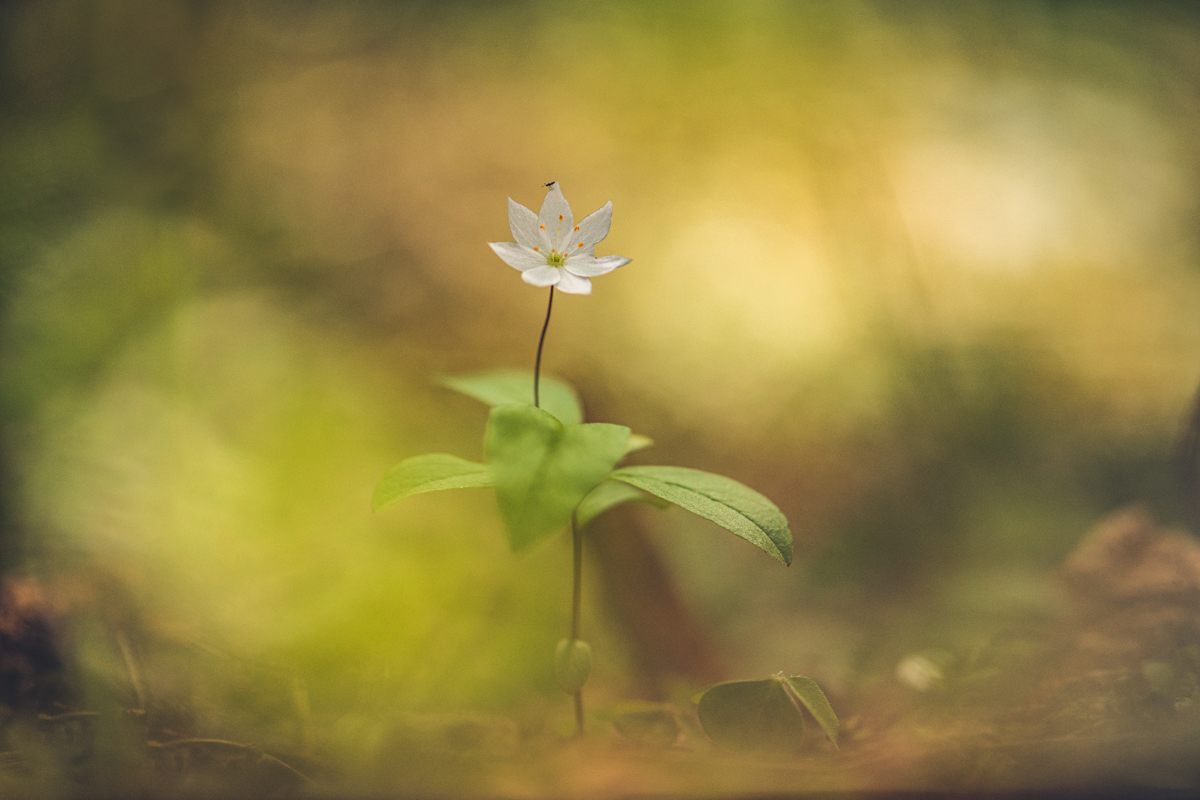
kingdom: Plantae
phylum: Tracheophyta
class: Magnoliopsida
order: Ericales
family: Primulaceae
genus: Lysimachia
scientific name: Lysimachia europaea
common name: Arctic starflower
